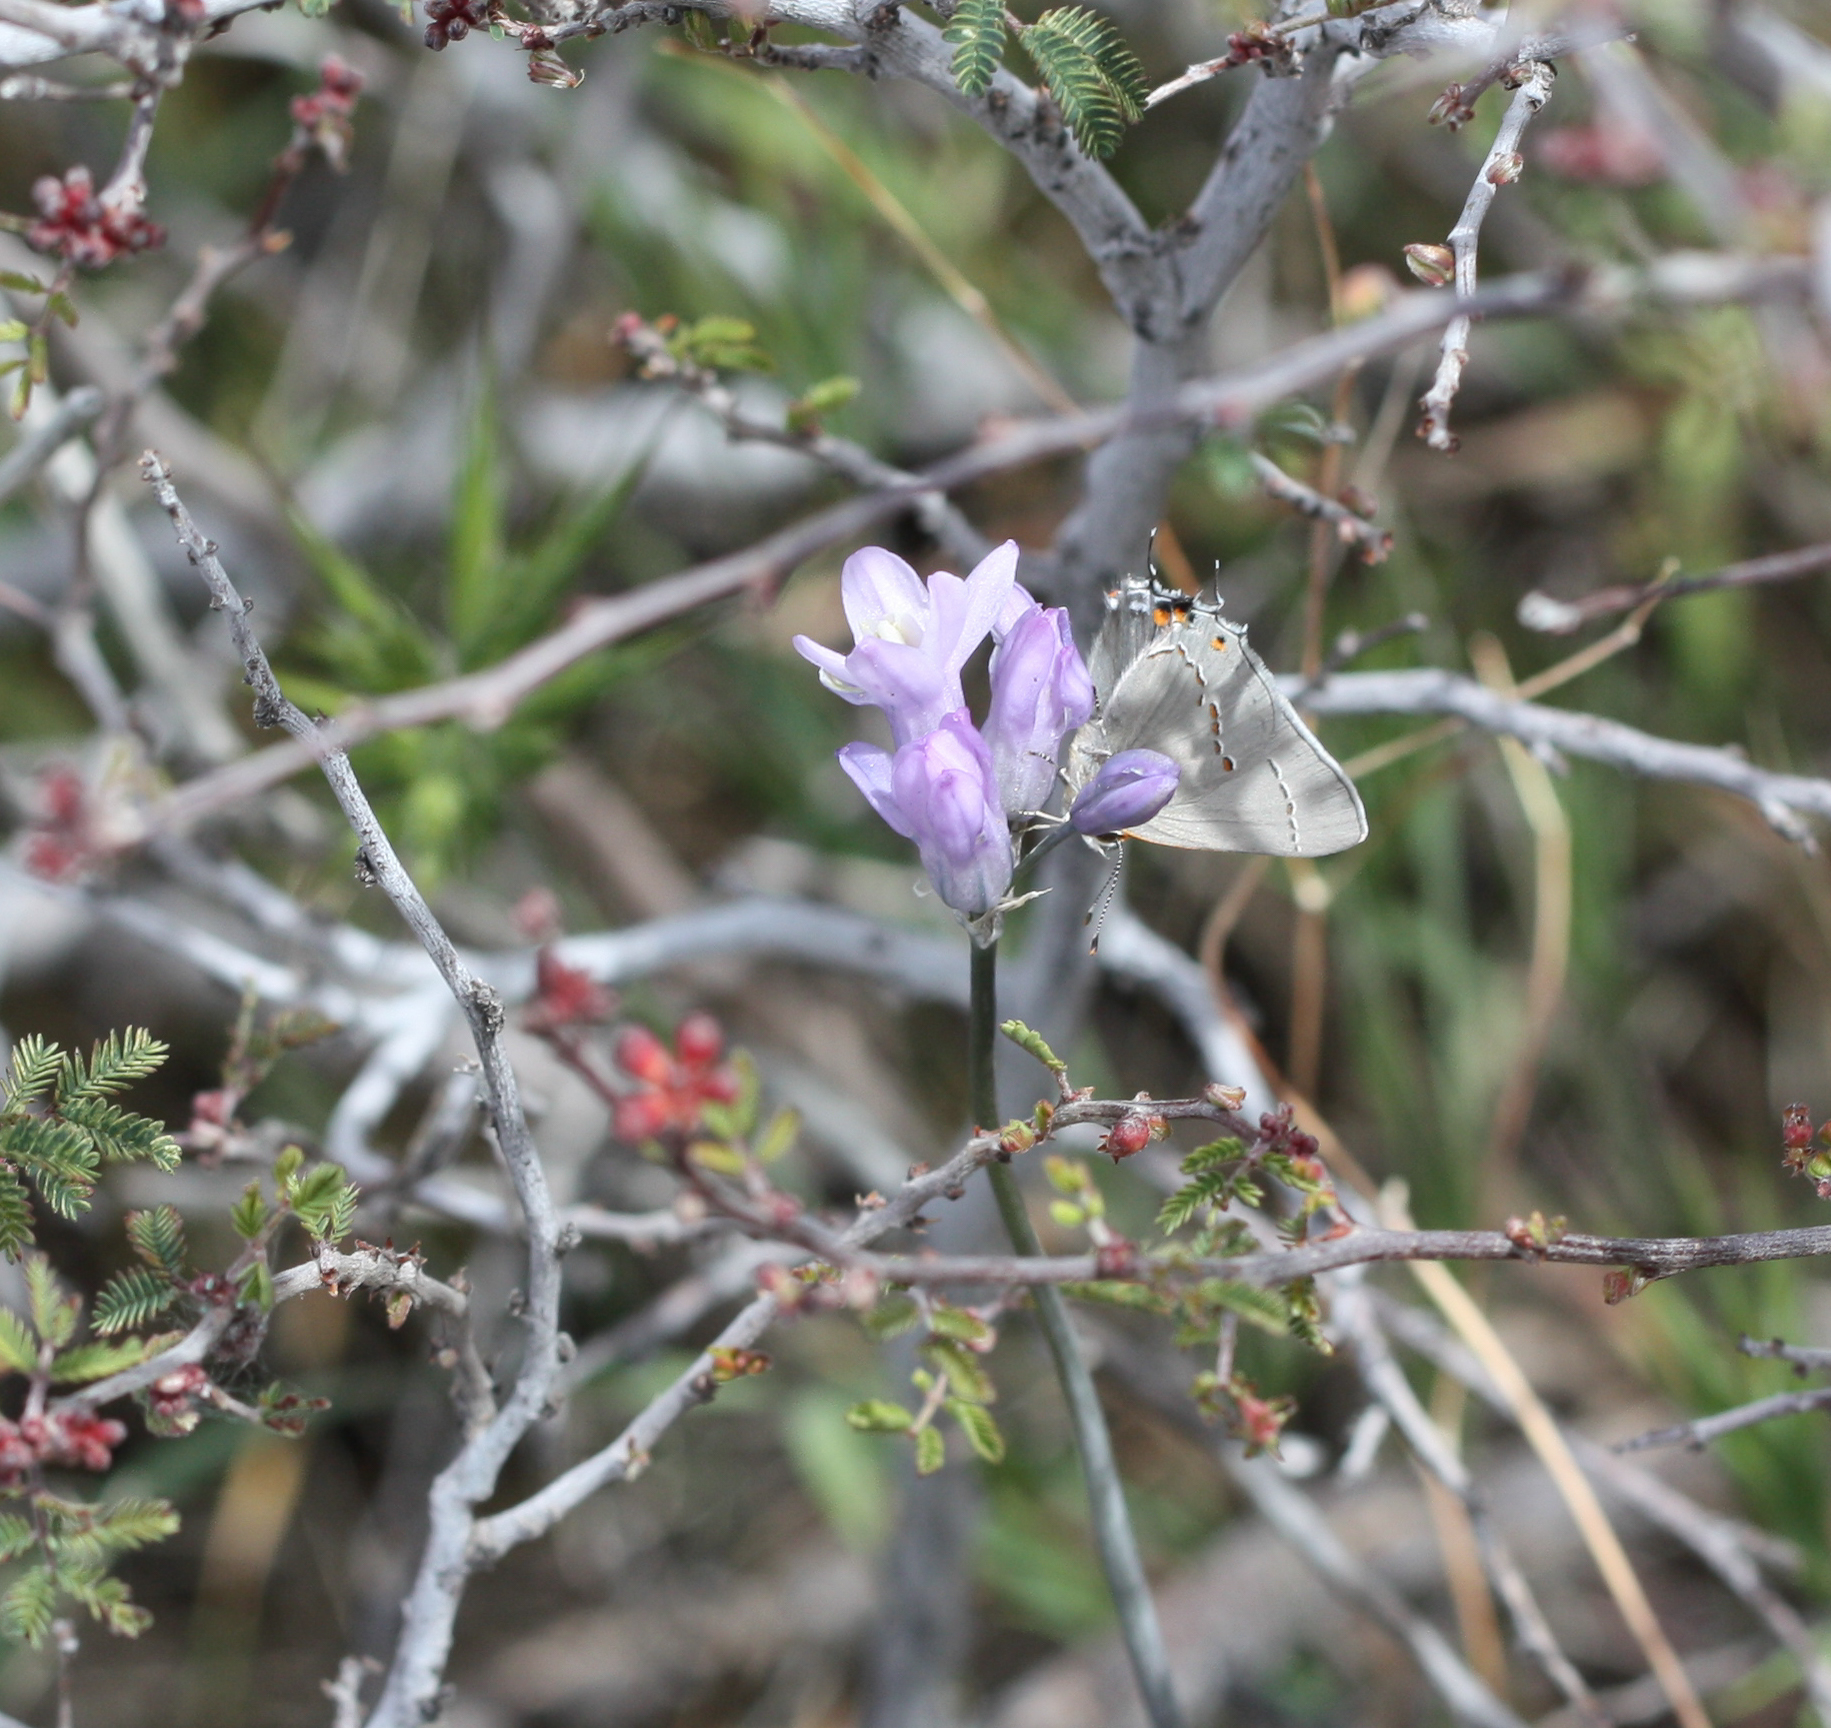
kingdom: Animalia
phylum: Arthropoda
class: Insecta
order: Lepidoptera
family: Lycaenidae
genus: Strymon
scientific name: Strymon melinus
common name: Gray hairstreak
